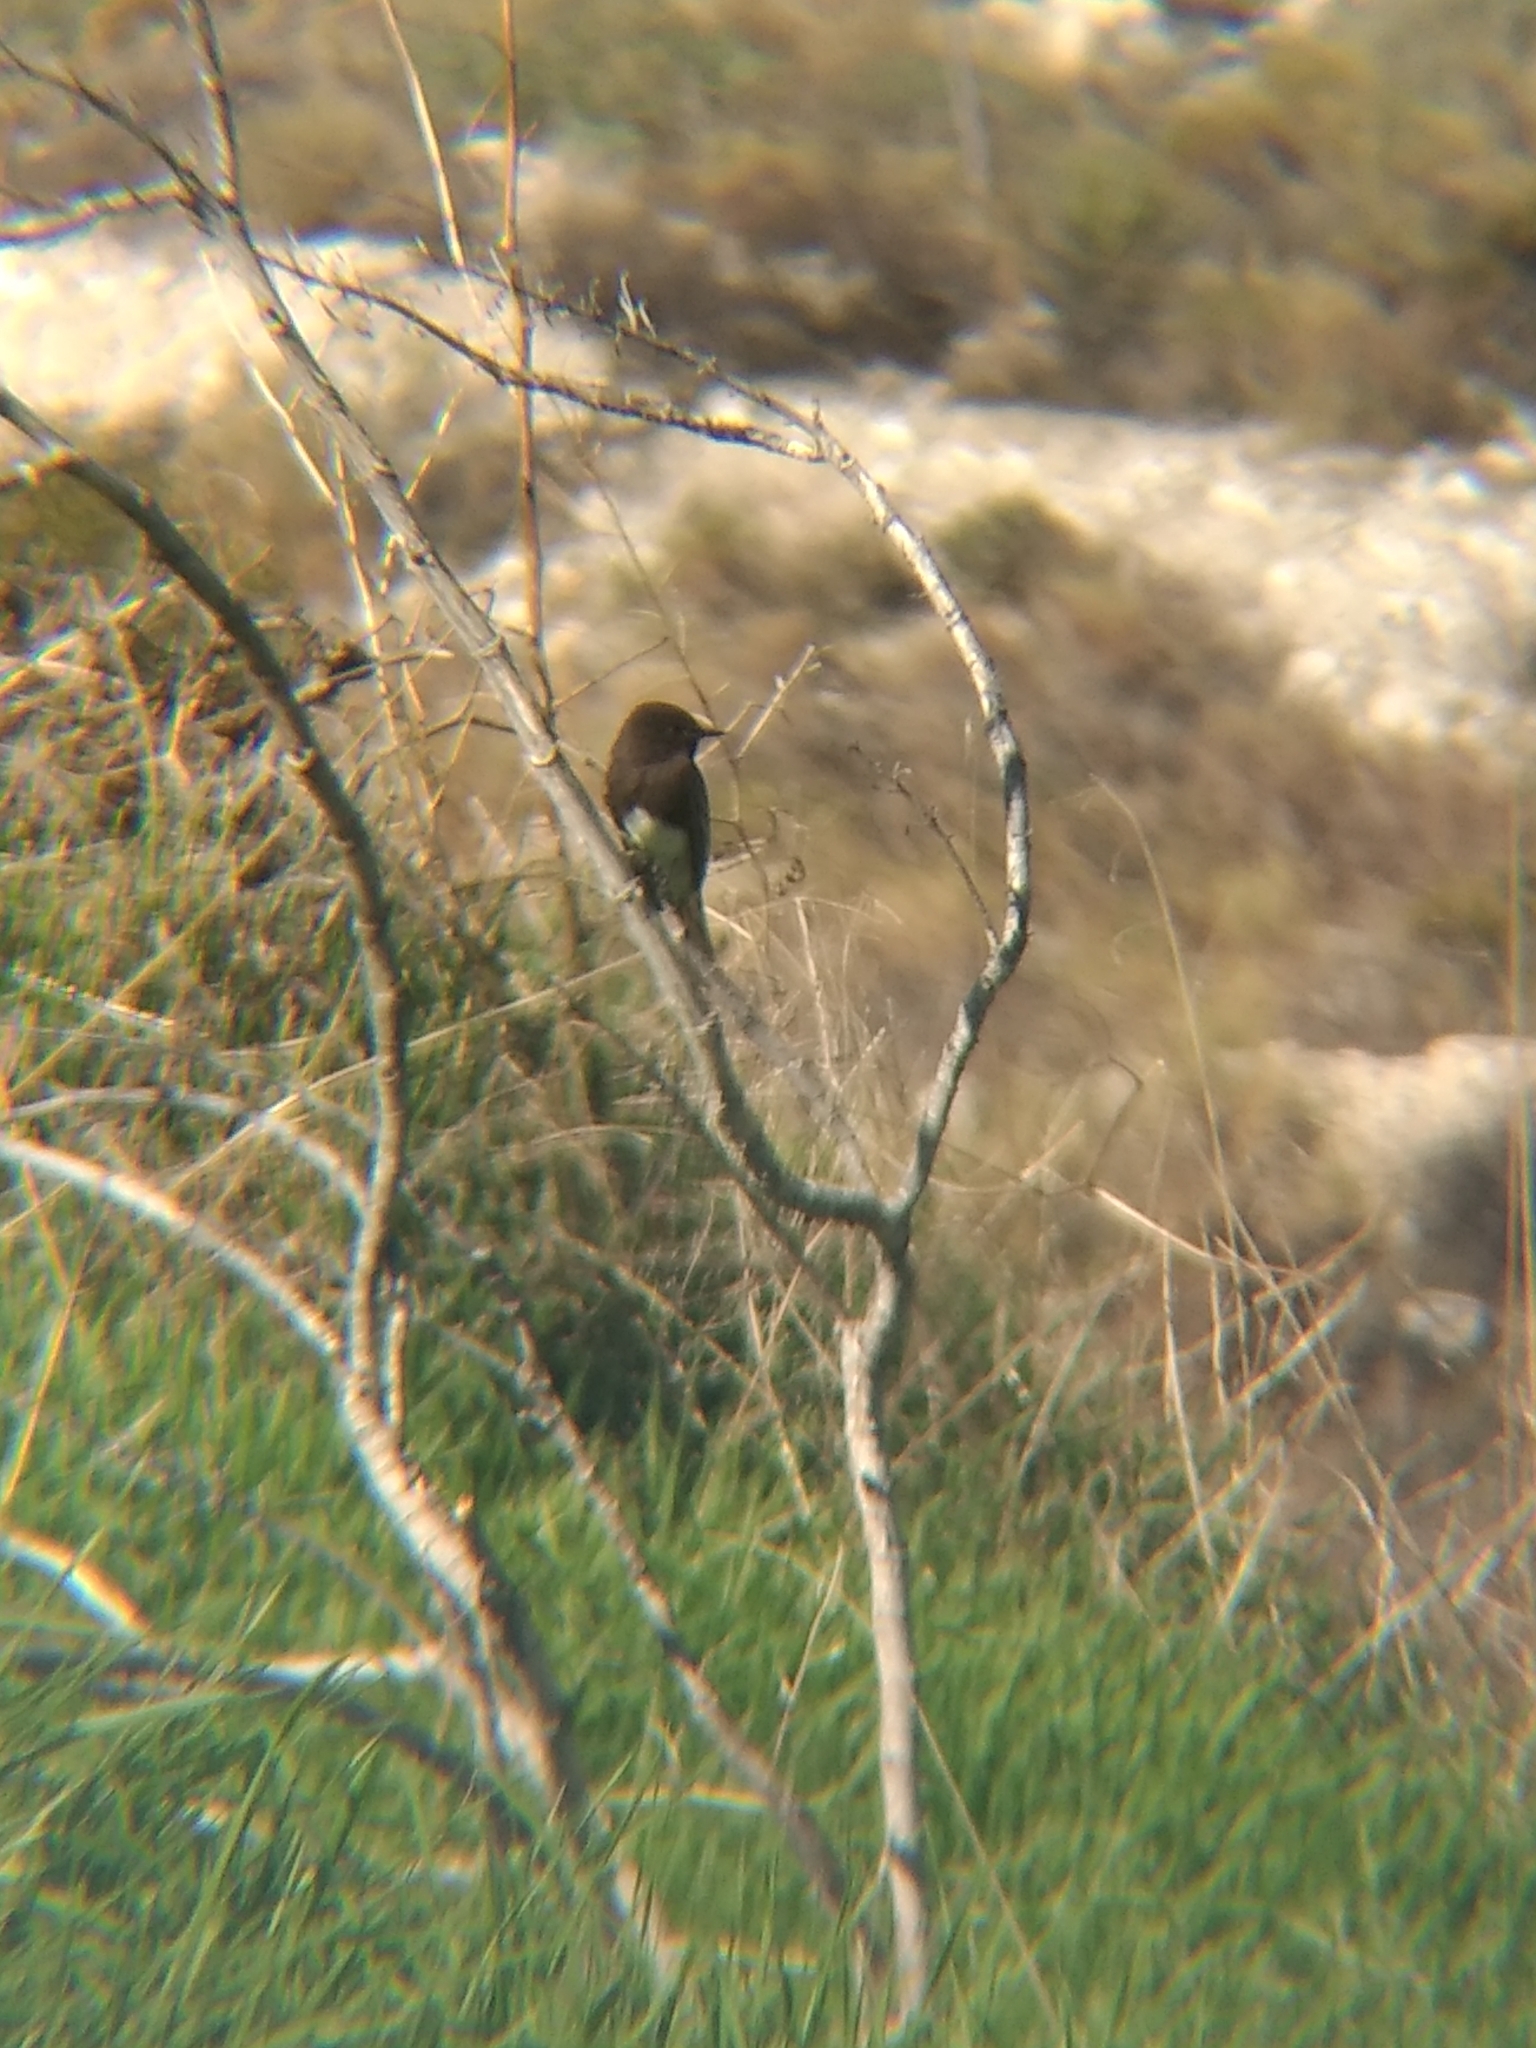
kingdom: Animalia
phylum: Chordata
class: Aves
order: Passeriformes
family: Tyrannidae
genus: Sayornis
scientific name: Sayornis nigricans
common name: Black phoebe
